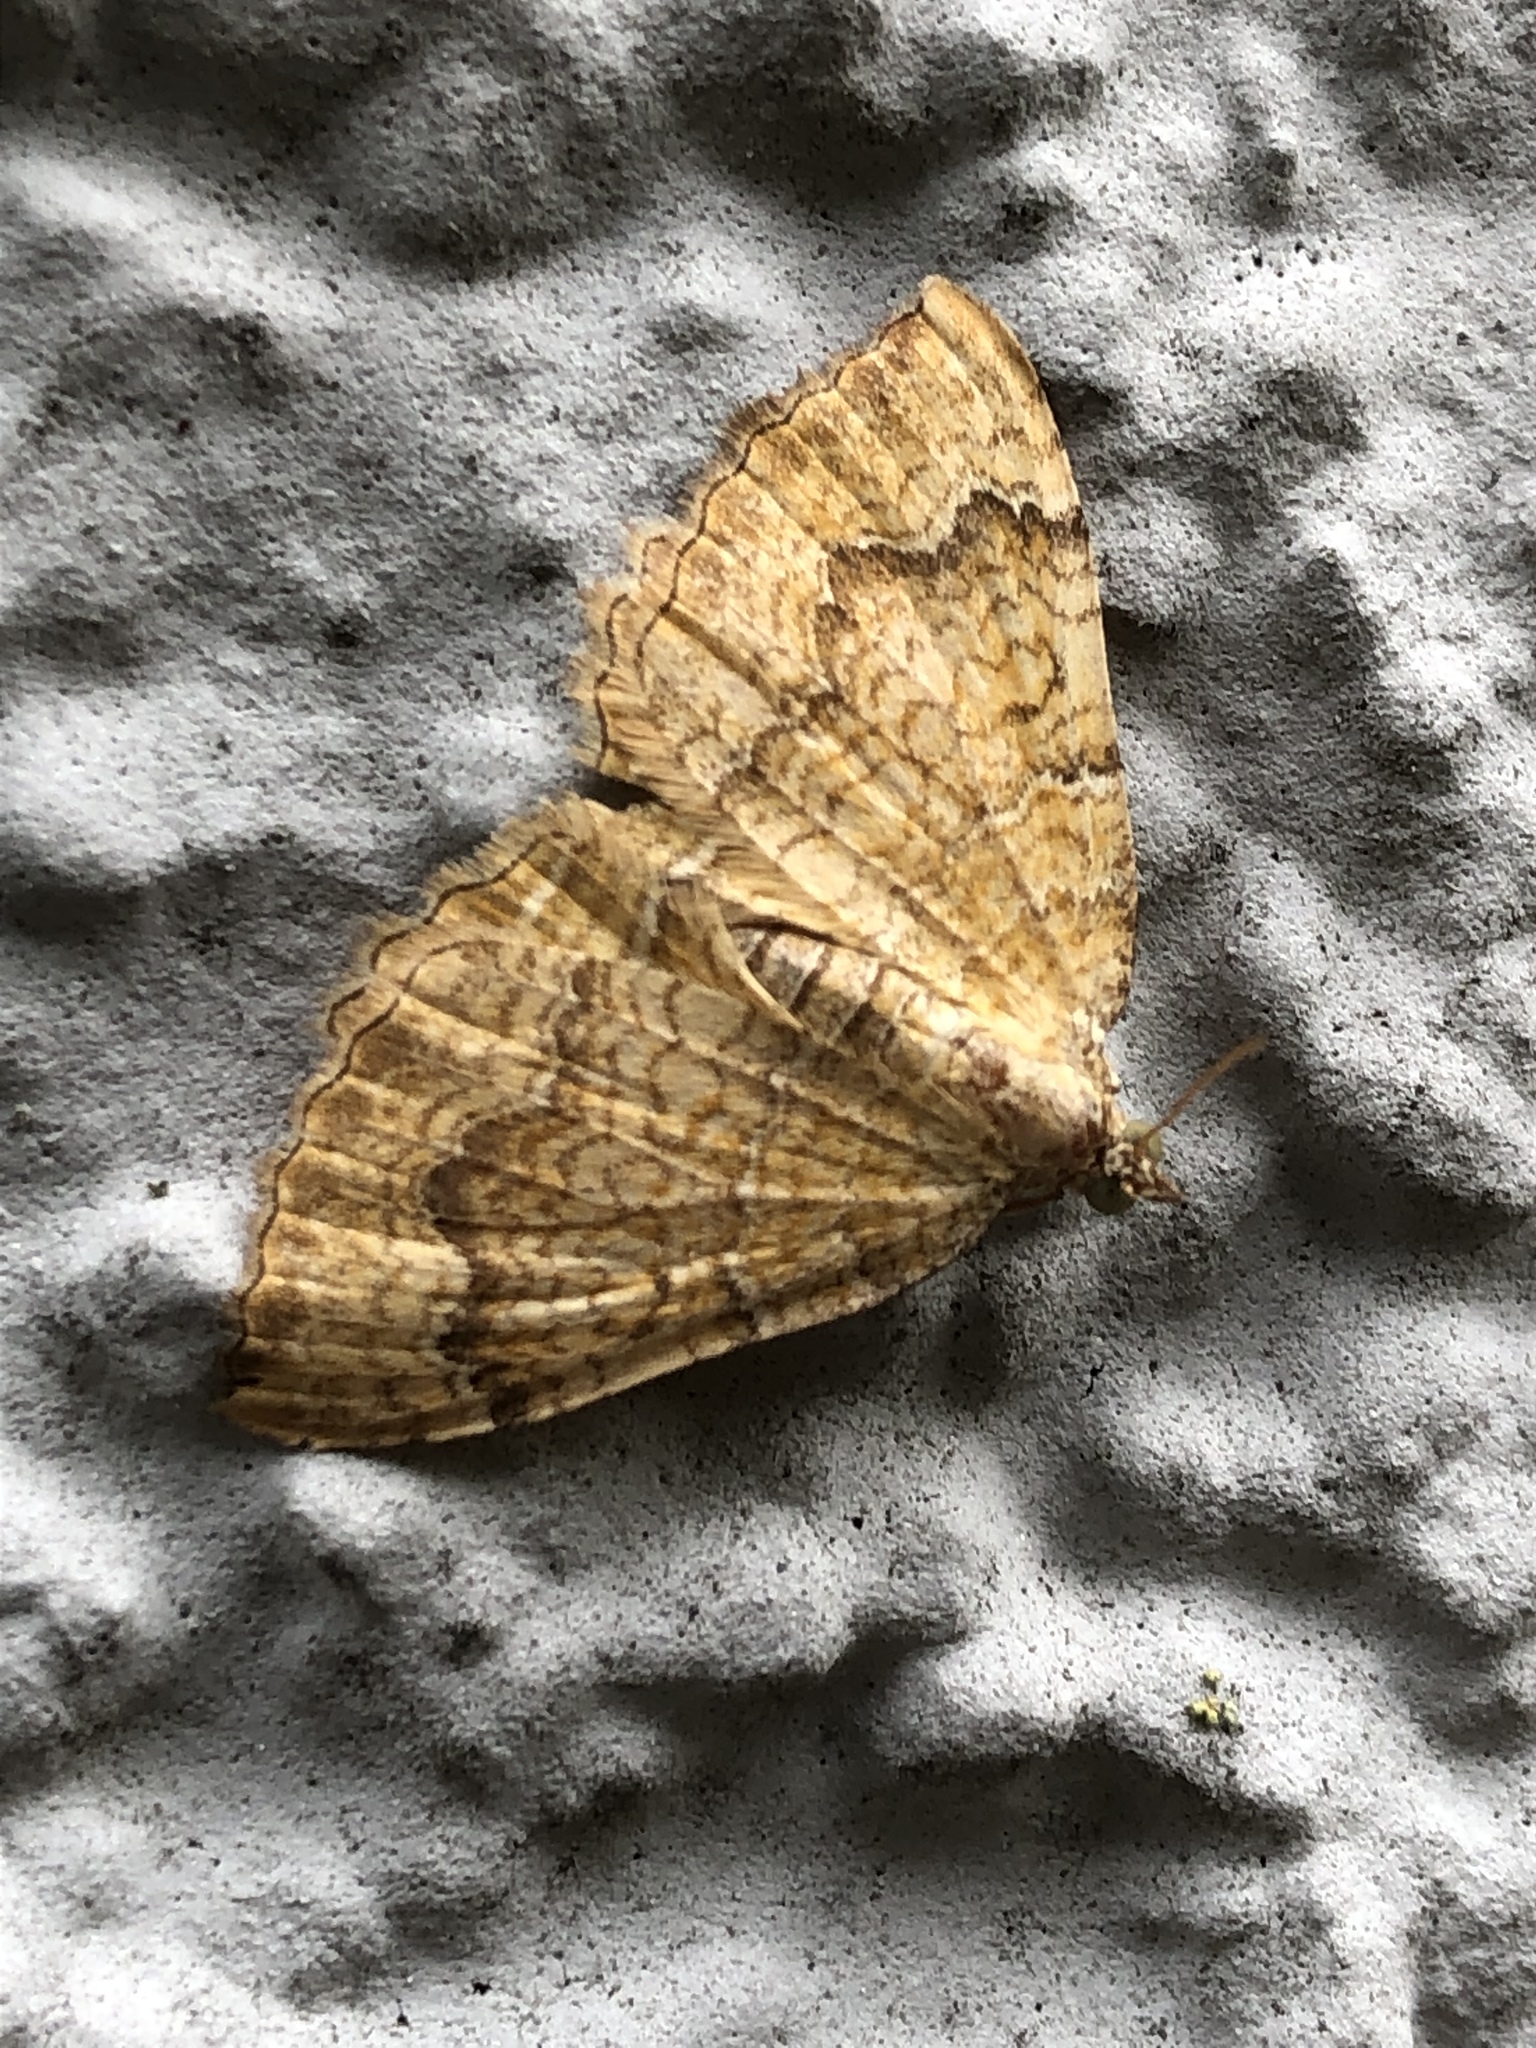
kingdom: Animalia
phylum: Arthropoda
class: Insecta
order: Lepidoptera
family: Geometridae
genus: Camptogramma
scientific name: Camptogramma bilineata
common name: Yellow shell
